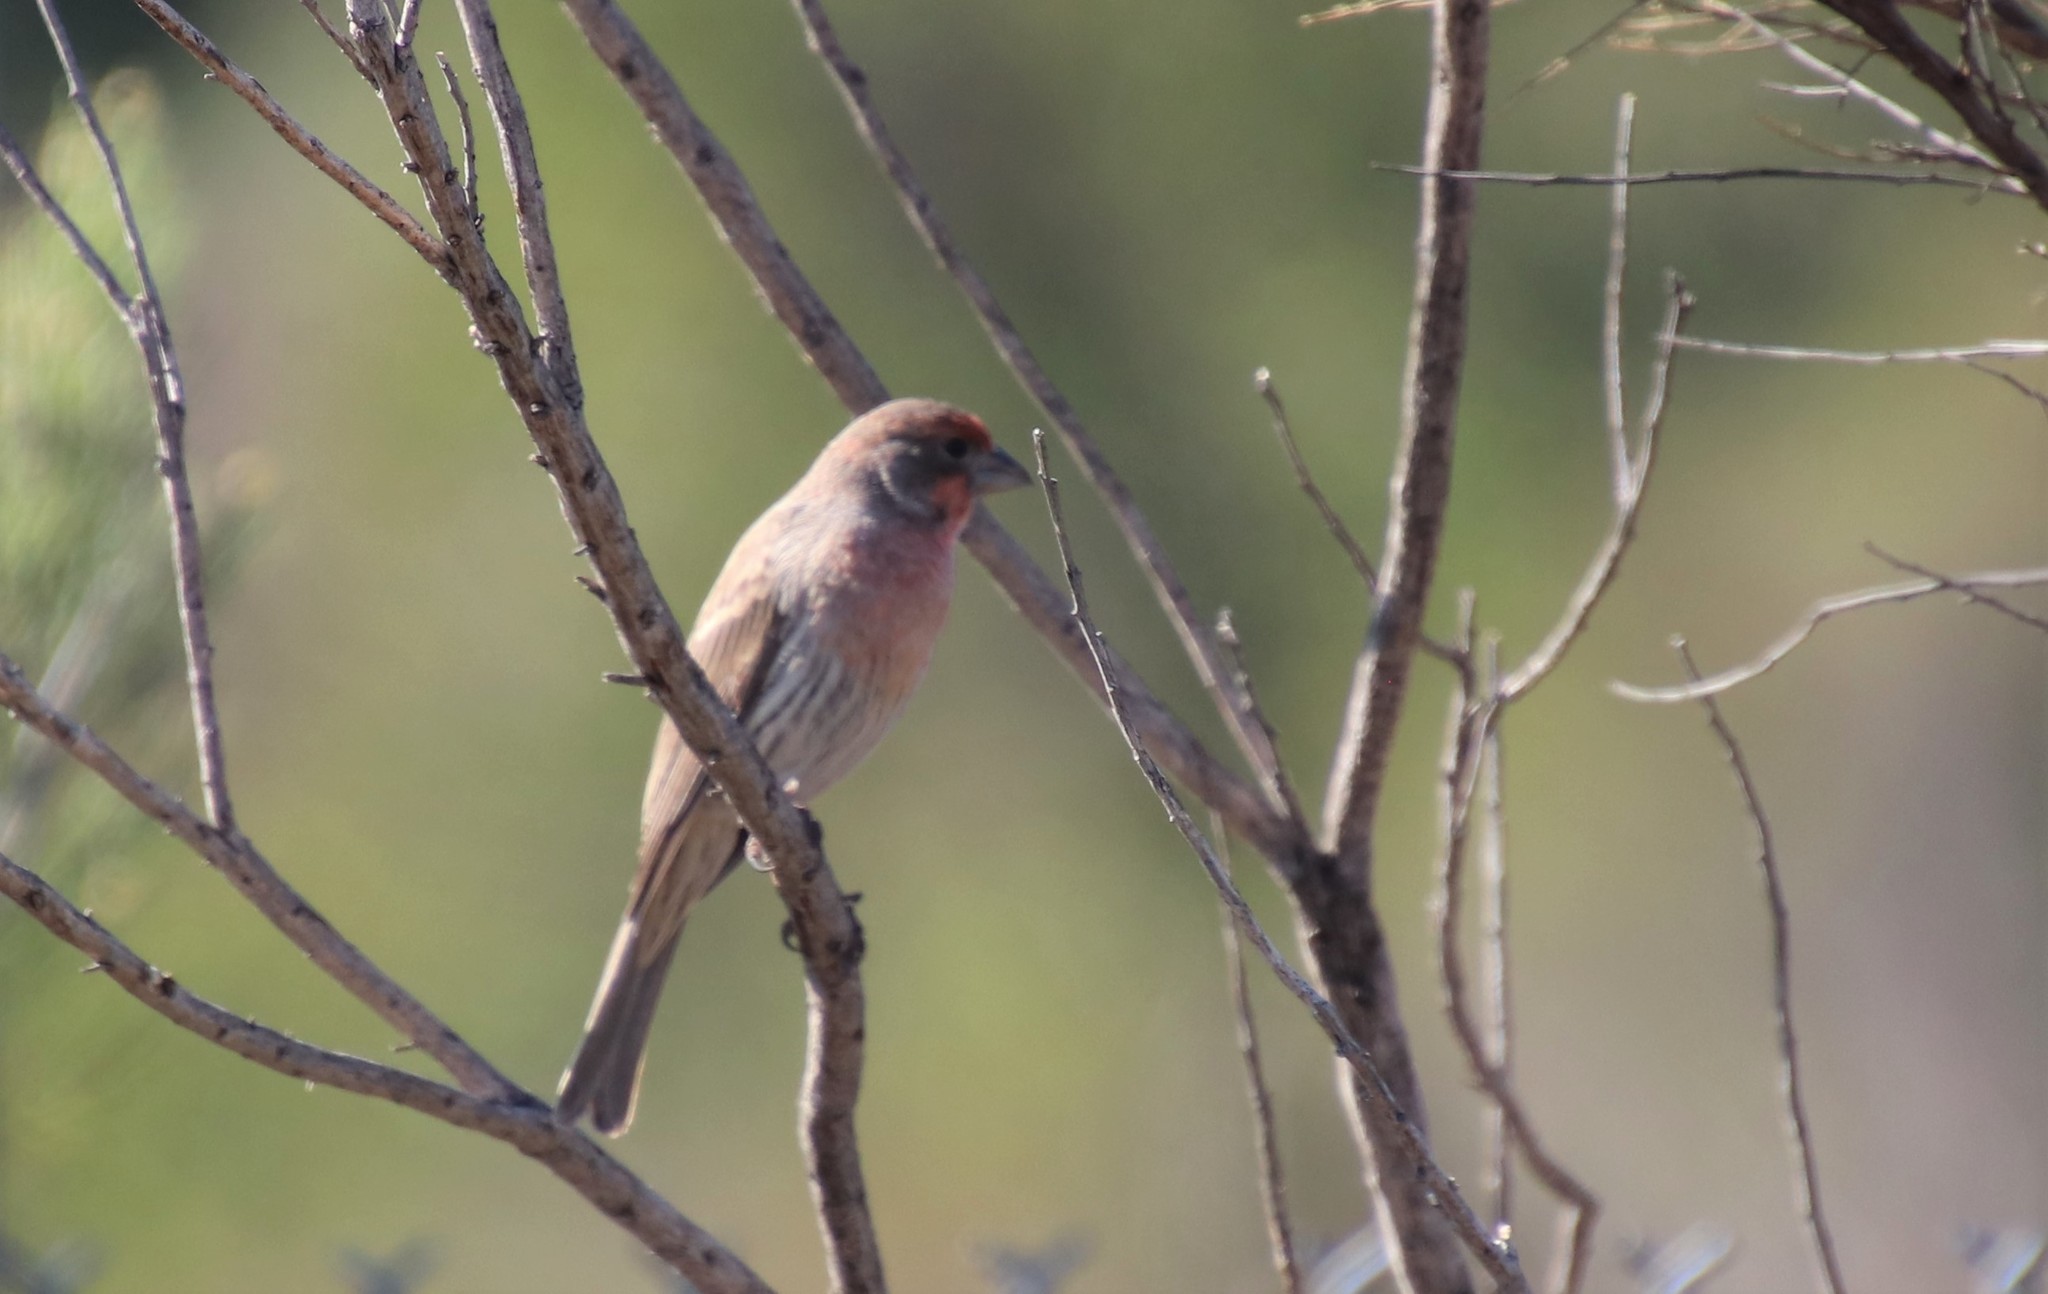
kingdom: Animalia
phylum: Chordata
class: Aves
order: Passeriformes
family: Fringillidae
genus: Haemorhous
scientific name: Haemorhous mexicanus
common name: House finch
